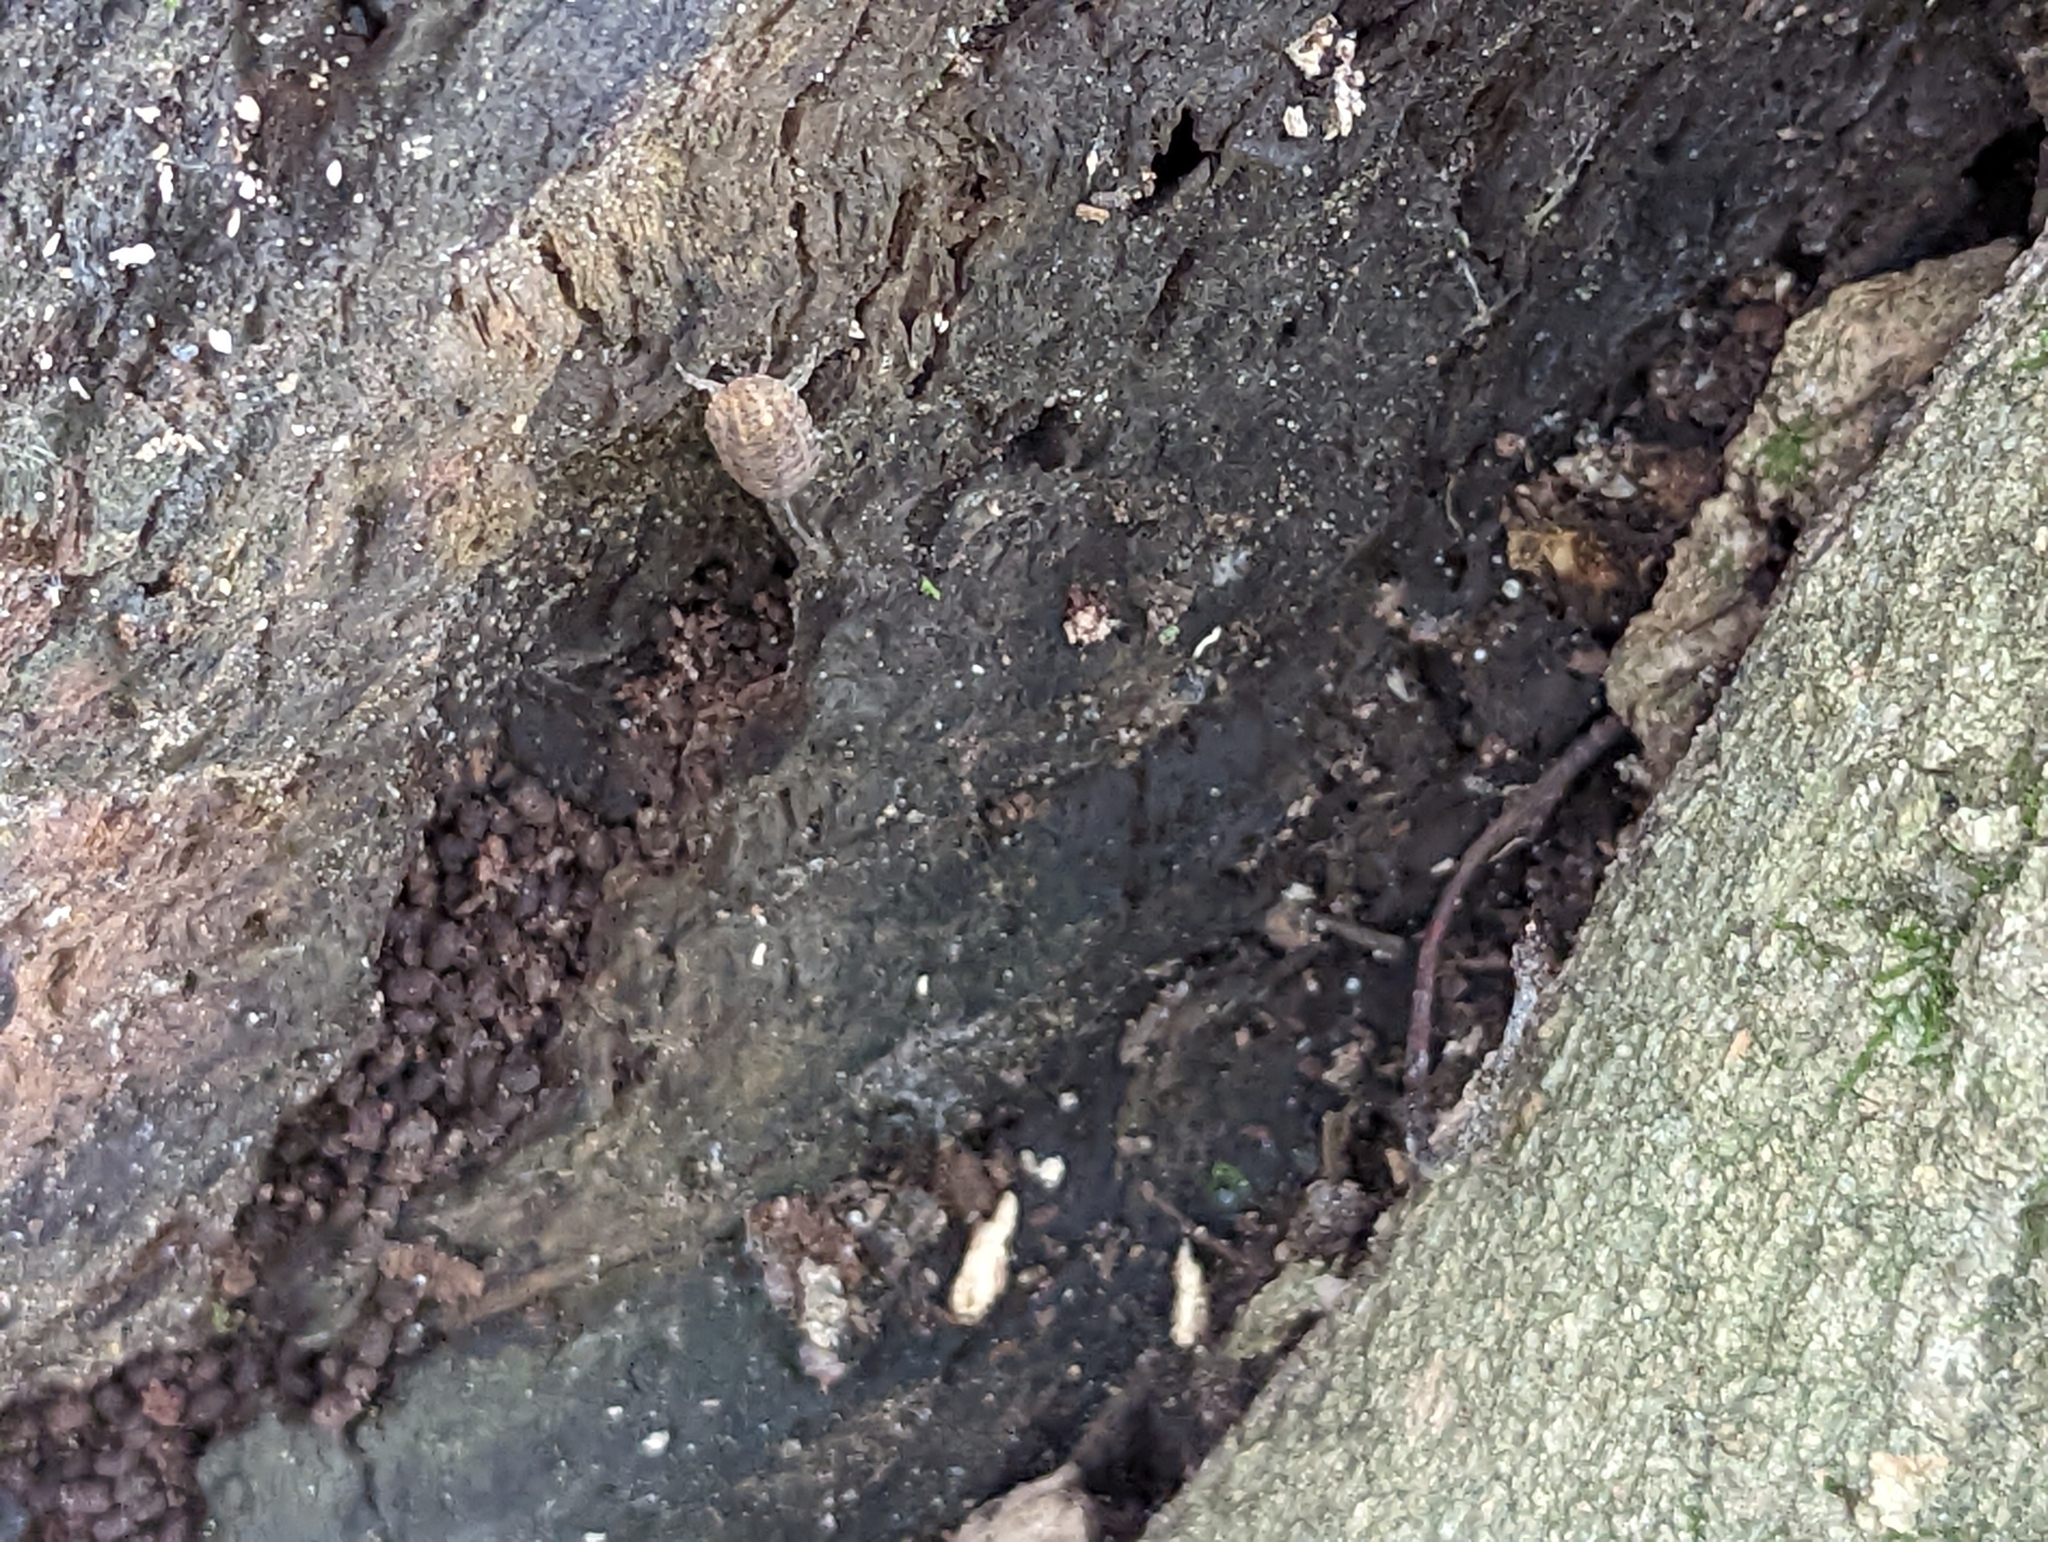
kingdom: Animalia
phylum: Arthropoda
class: Malacostraca
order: Isopoda
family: Trachelipodidae
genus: Trachelipus
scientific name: Trachelipus rathkii
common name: Isopod
